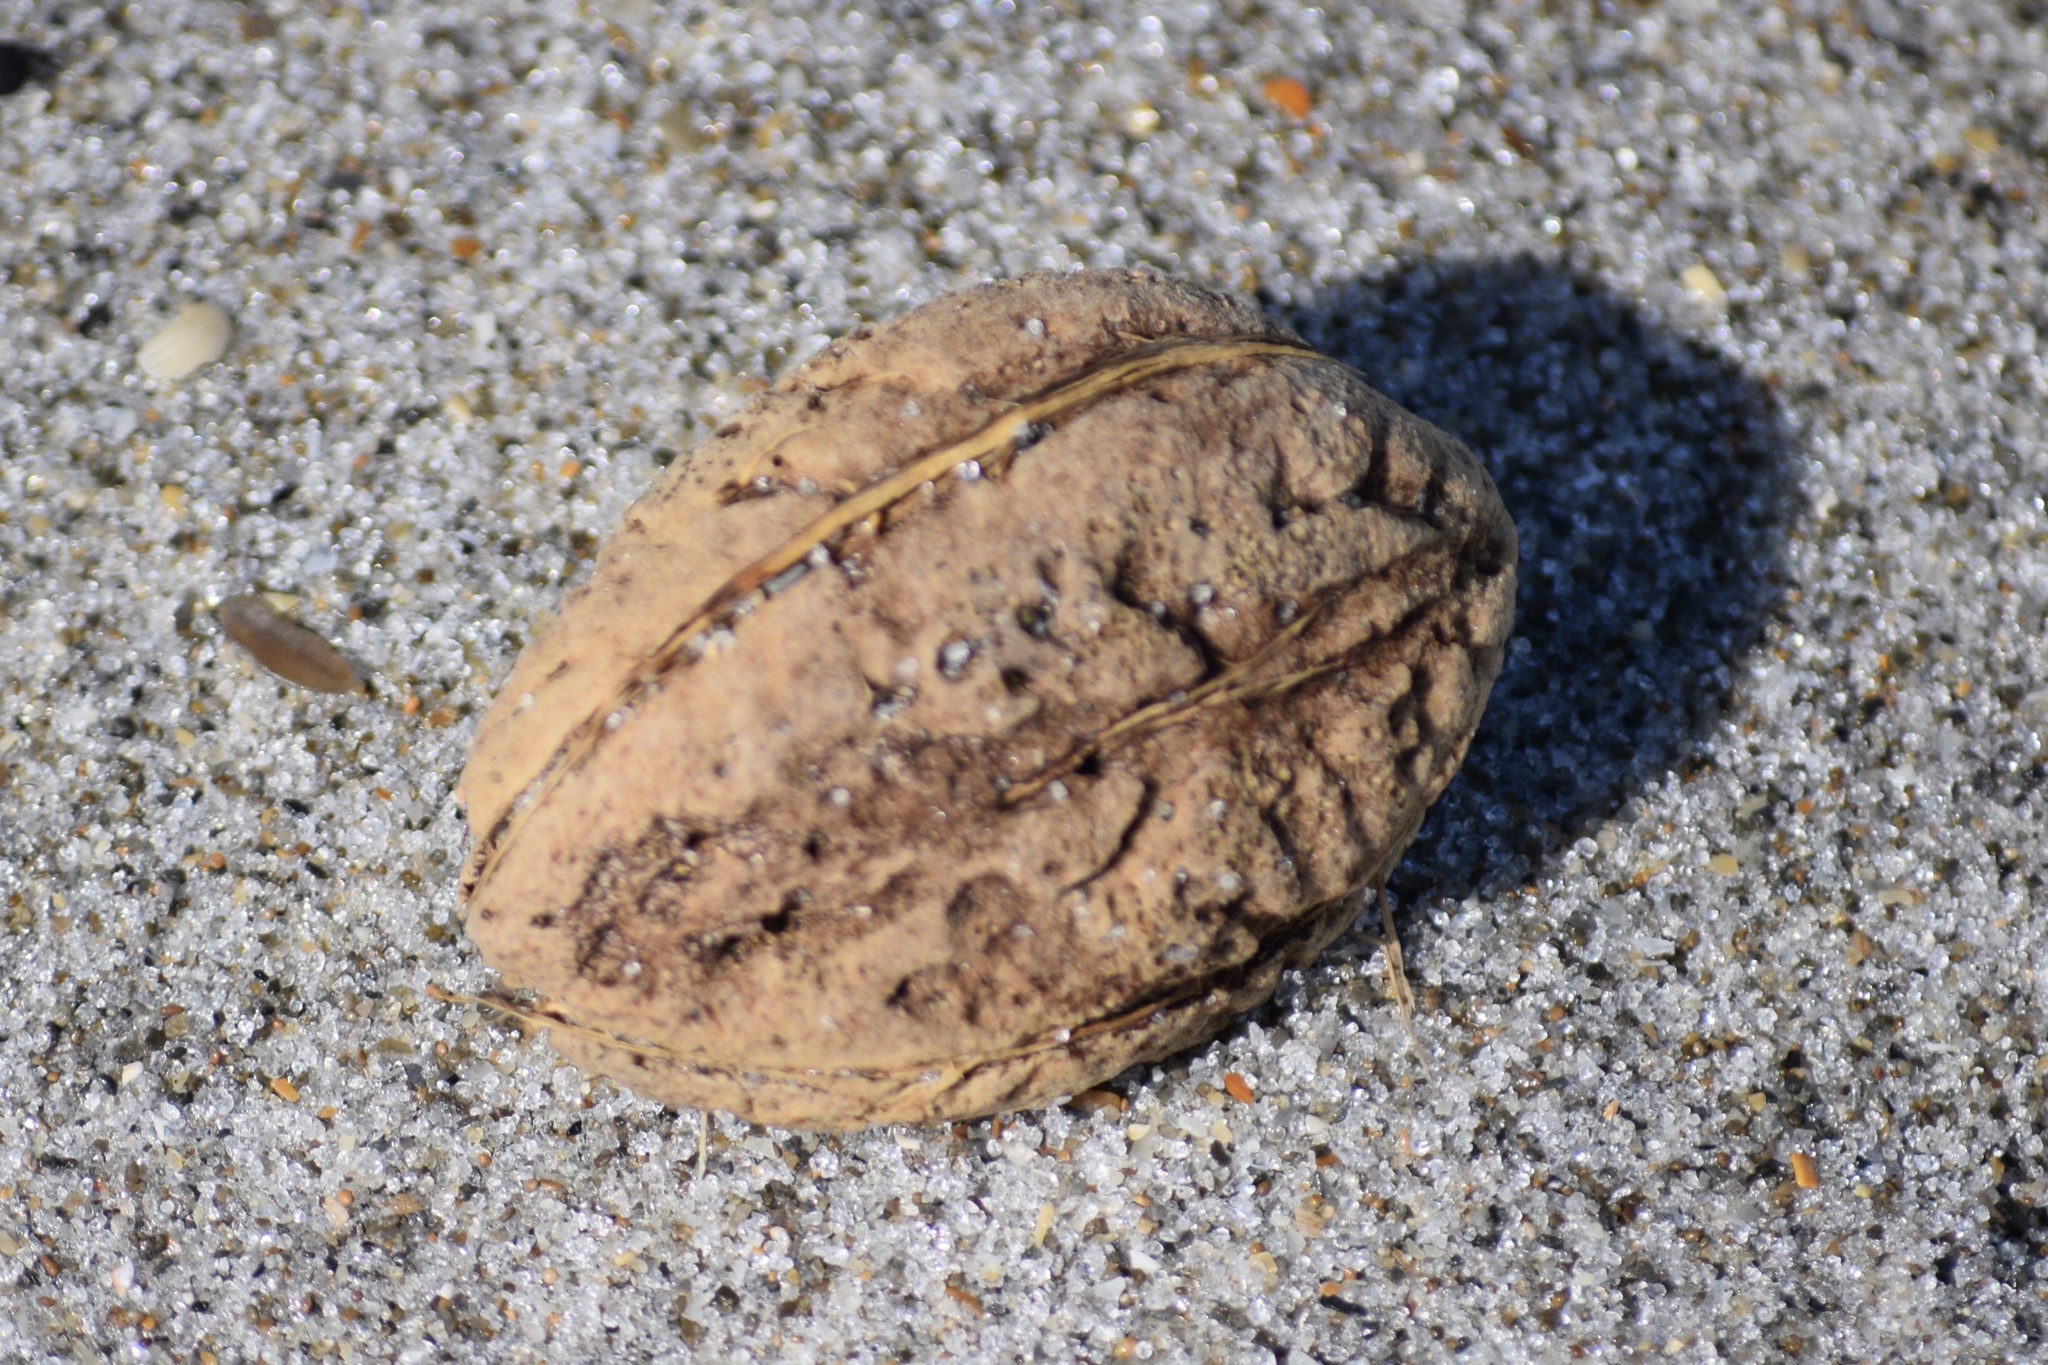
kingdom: Plantae
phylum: Tracheophyta
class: Magnoliopsida
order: Myrtales
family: Combretaceae
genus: Terminalia
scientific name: Terminalia catappa
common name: Tropical almond
